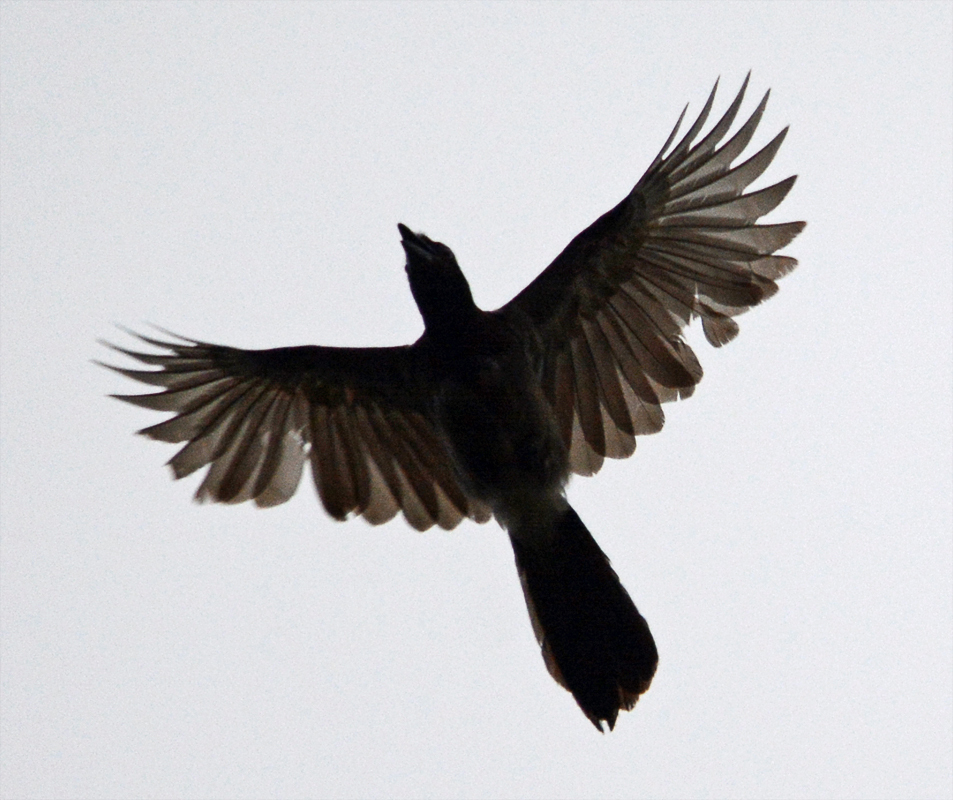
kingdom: Animalia
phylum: Chordata
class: Aves
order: Passeriformes
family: Corvidae
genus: Psilorhinus
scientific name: Psilorhinus morio
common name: Brown jay
